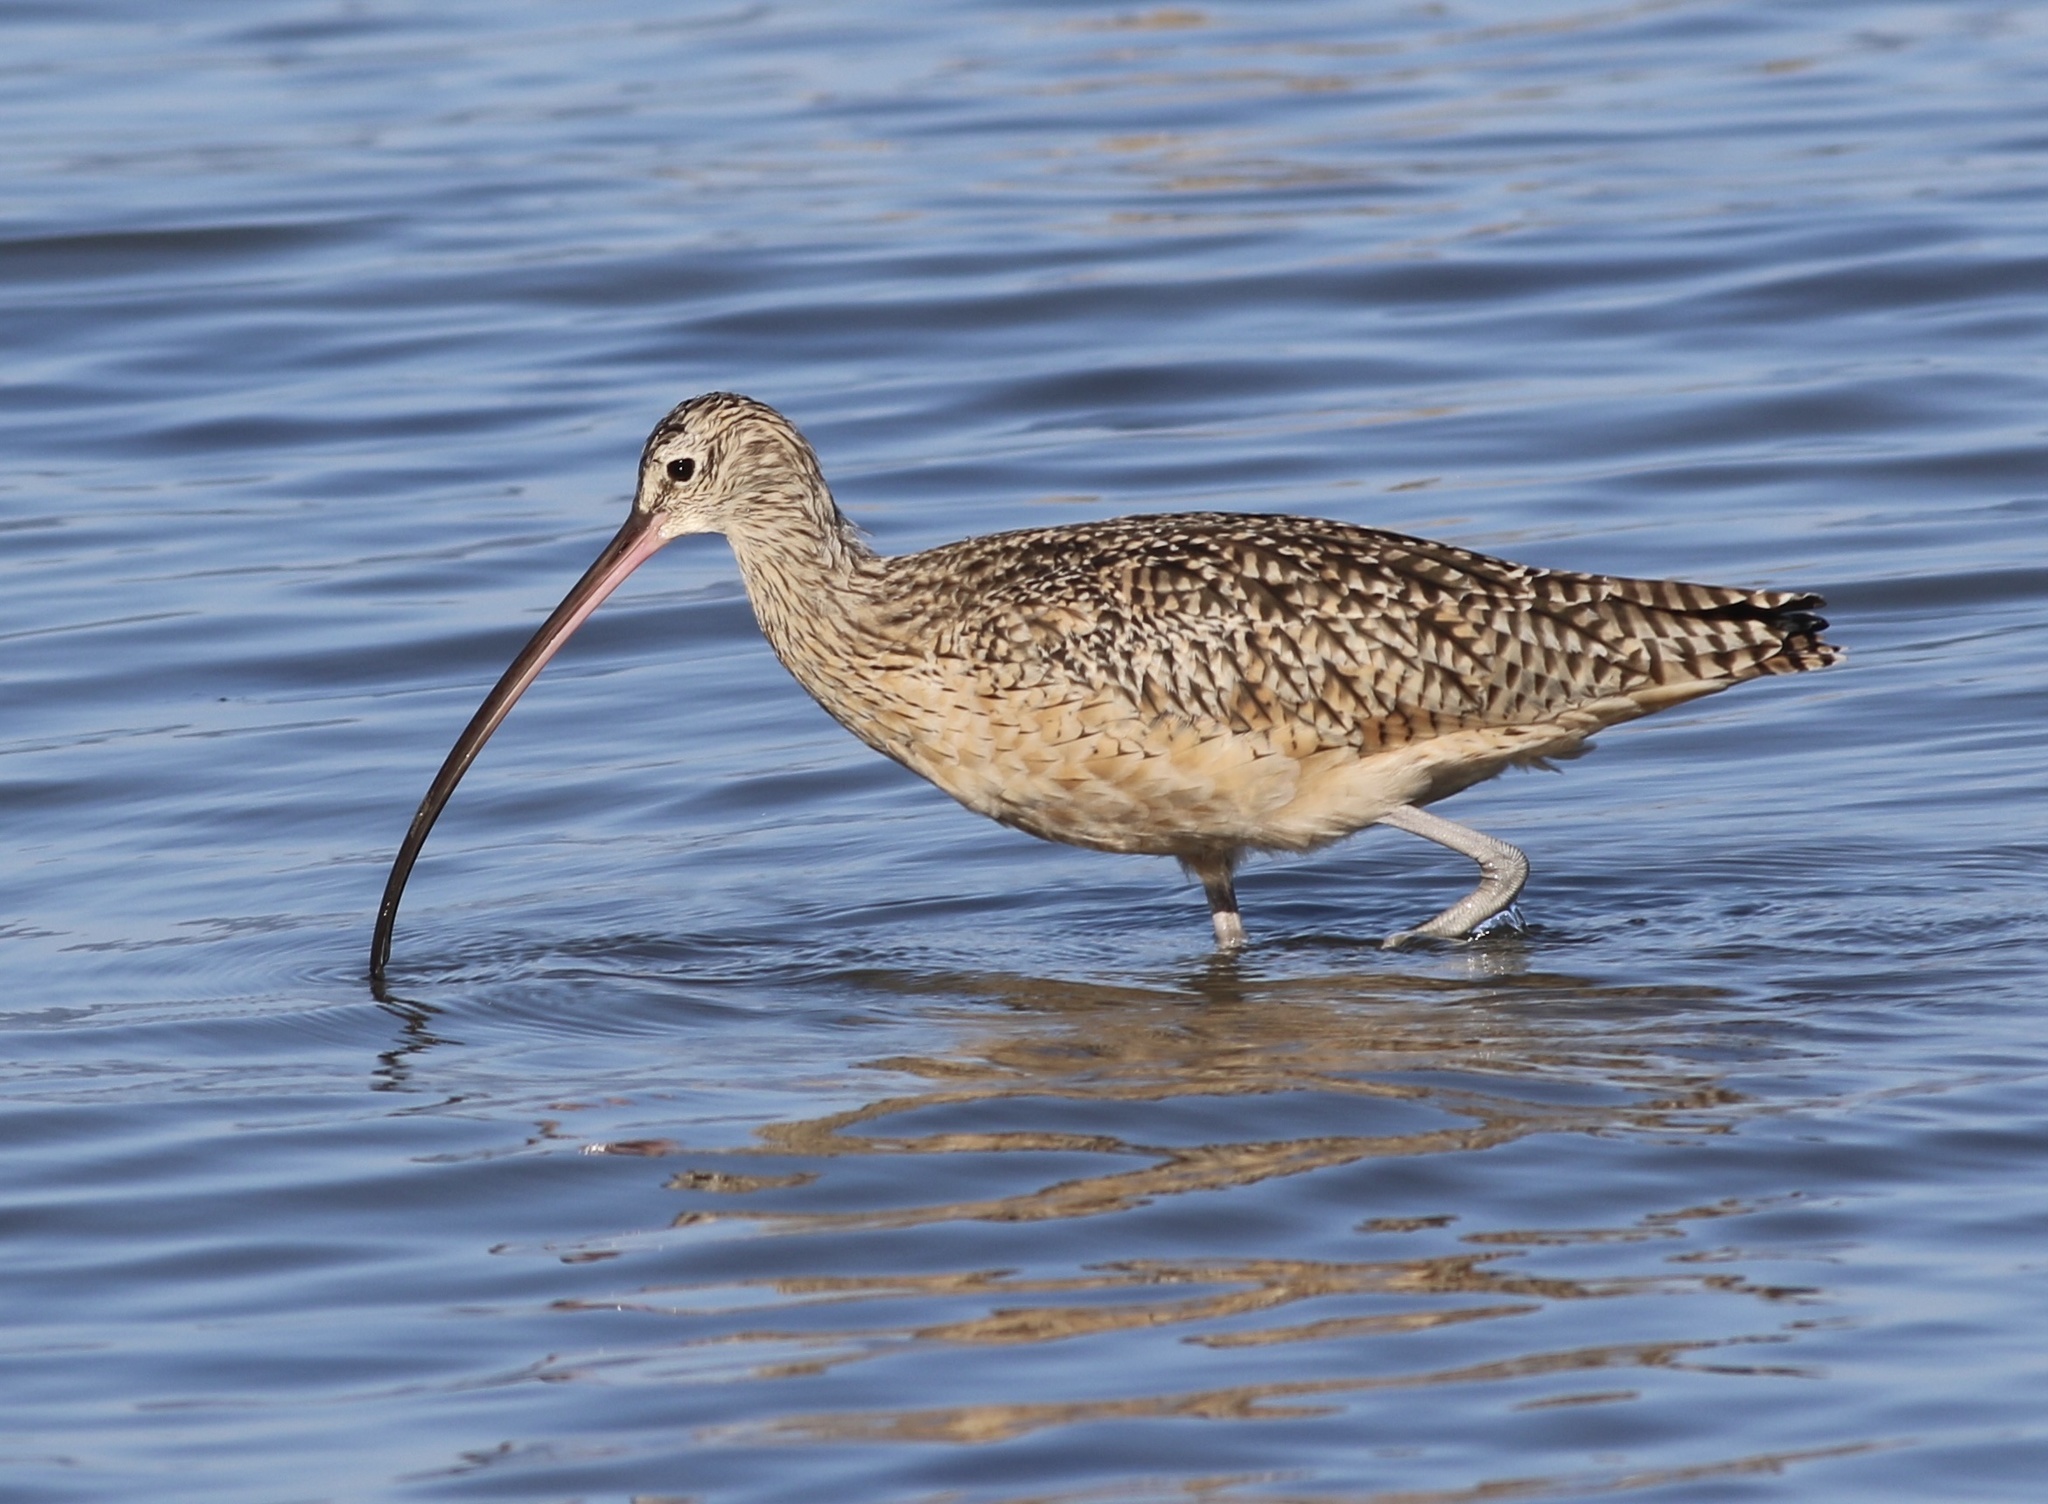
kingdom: Animalia
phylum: Chordata
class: Aves
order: Charadriiformes
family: Scolopacidae
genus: Numenius
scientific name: Numenius americanus
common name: Long-billed curlew
